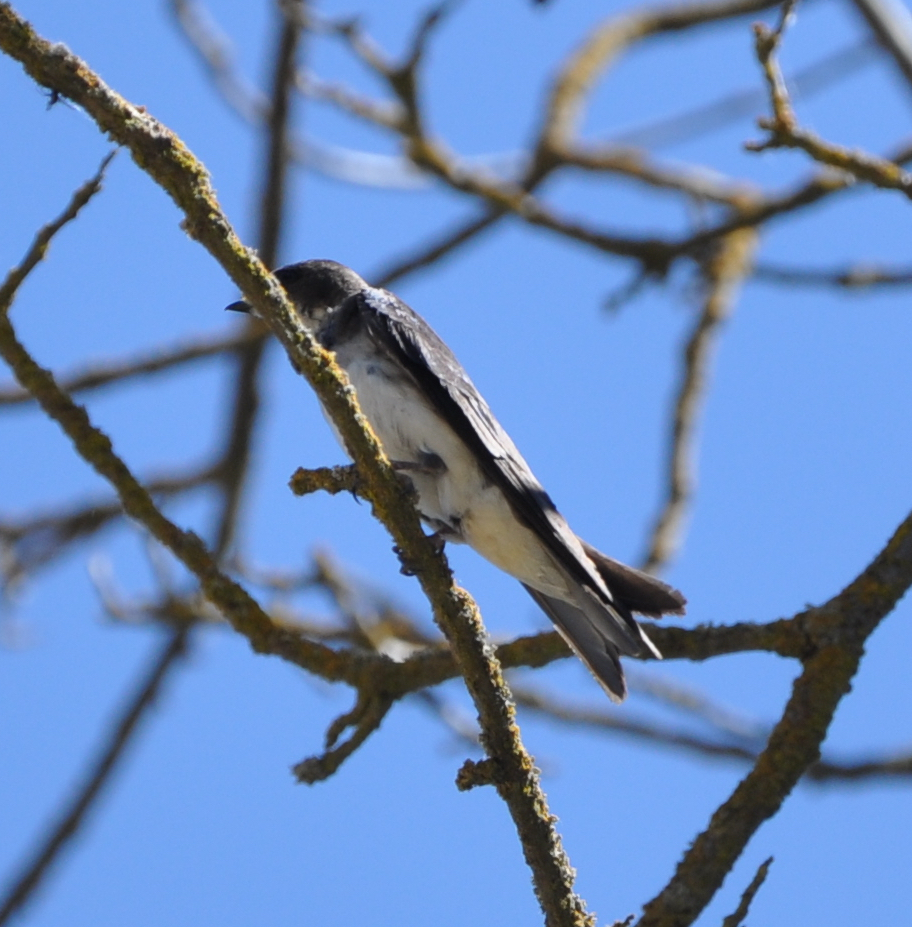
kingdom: Animalia
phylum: Chordata
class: Aves
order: Passeriformes
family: Hirundinidae
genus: Tachycineta
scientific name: Tachycineta bicolor
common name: Tree swallow
